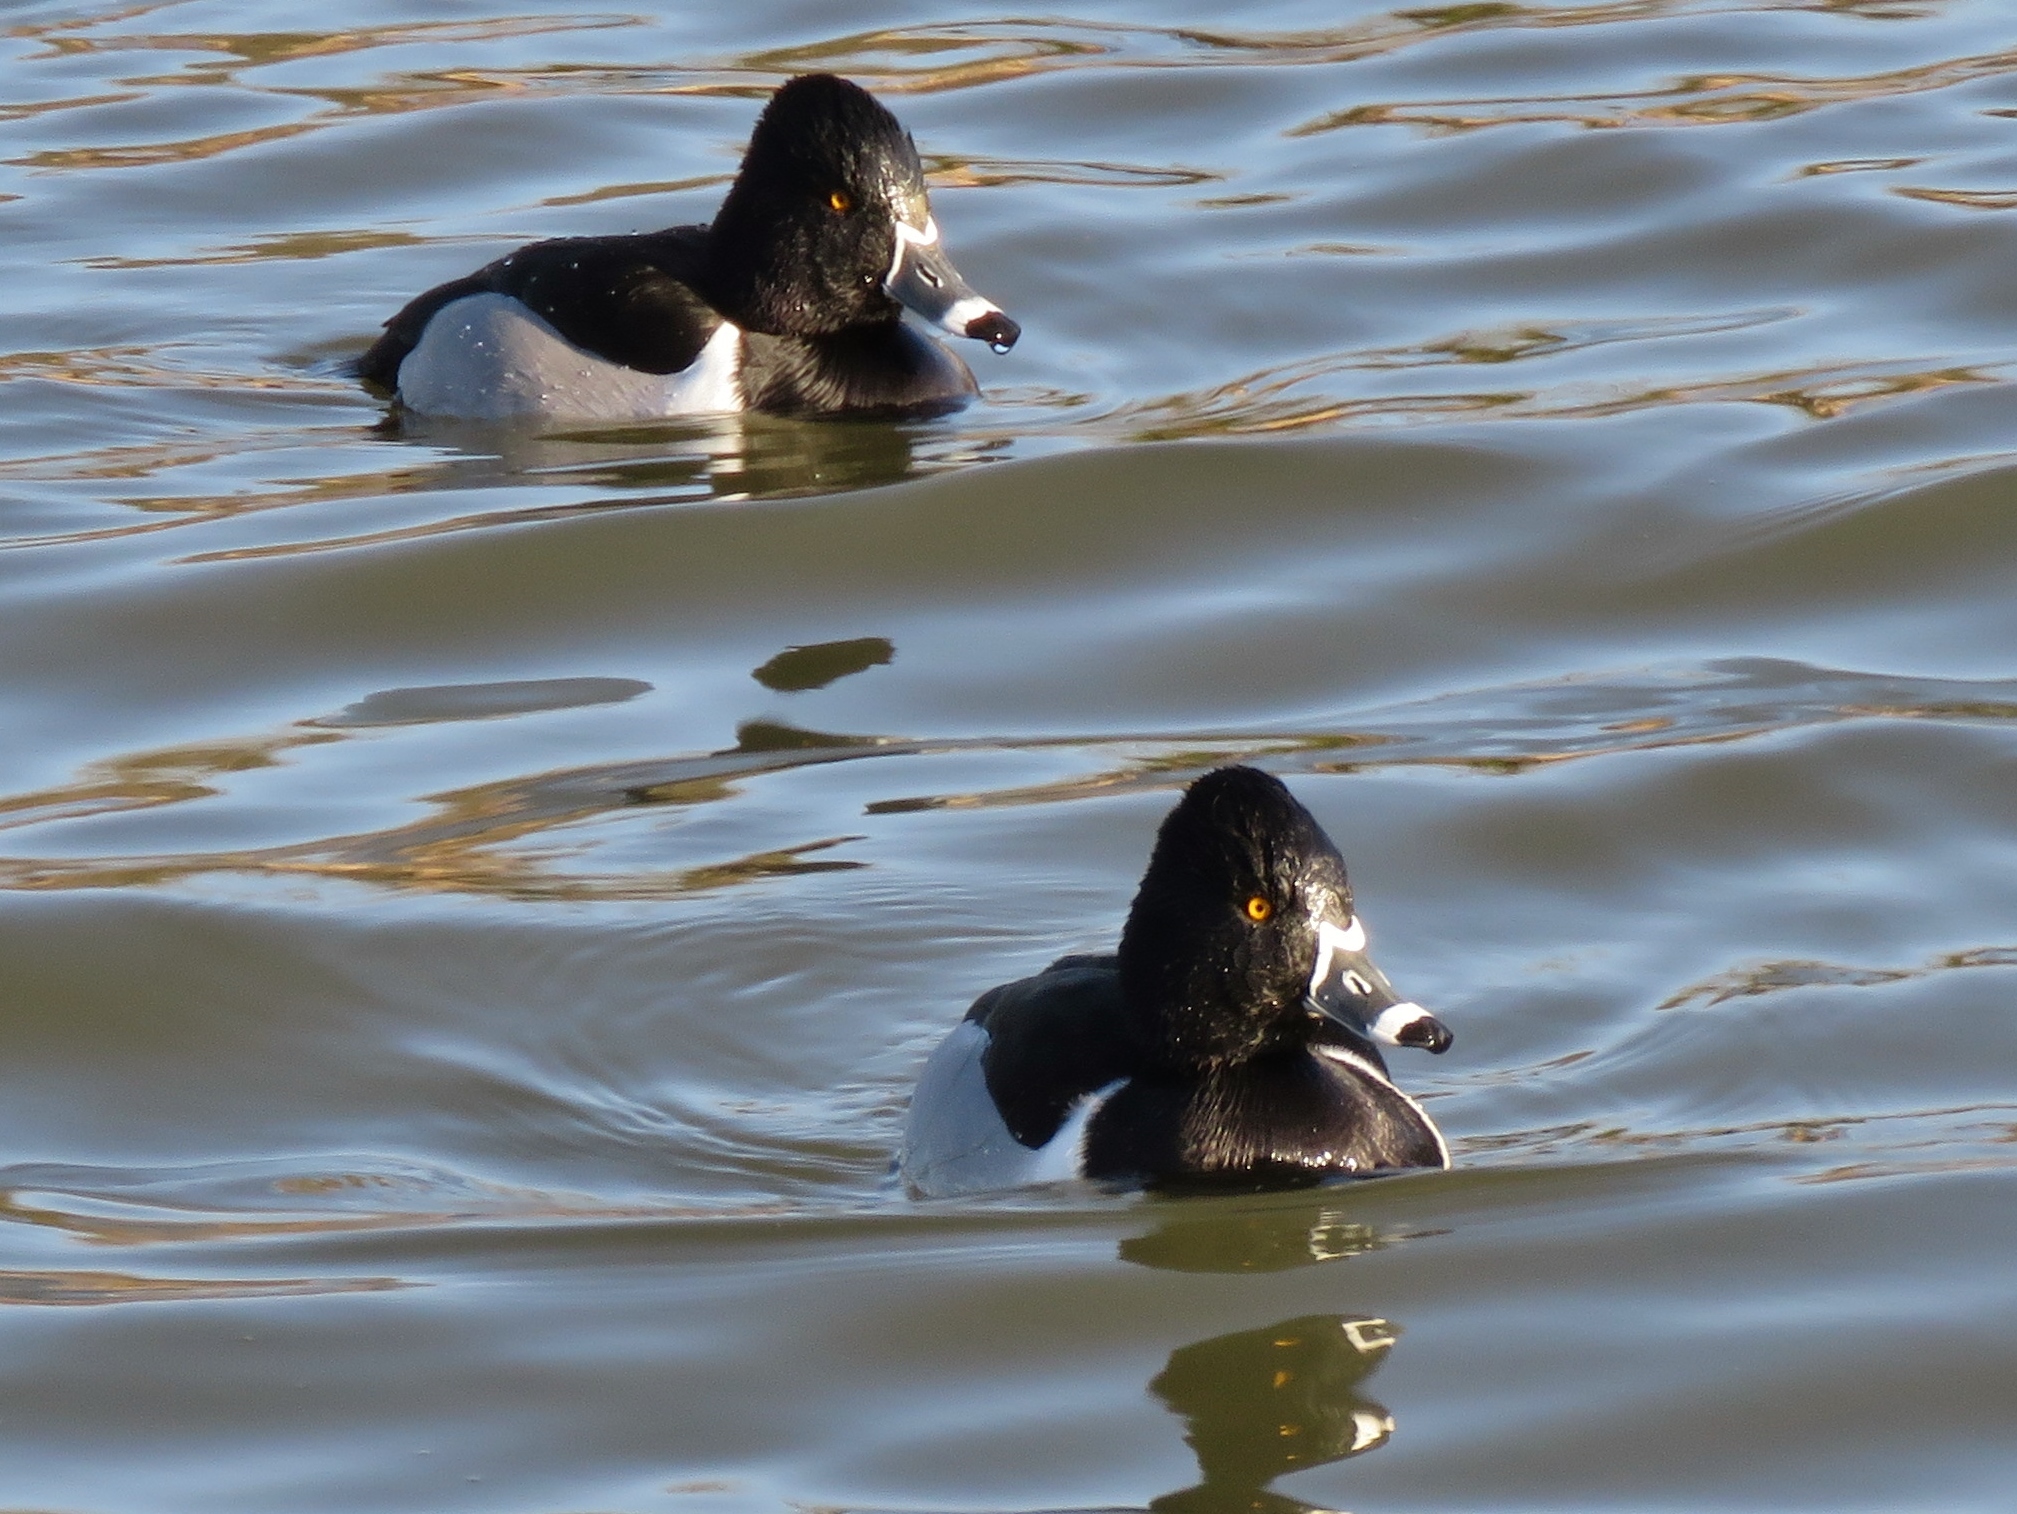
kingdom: Animalia
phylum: Chordata
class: Aves
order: Anseriformes
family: Anatidae
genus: Aythya
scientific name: Aythya collaris
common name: Ring-necked duck
